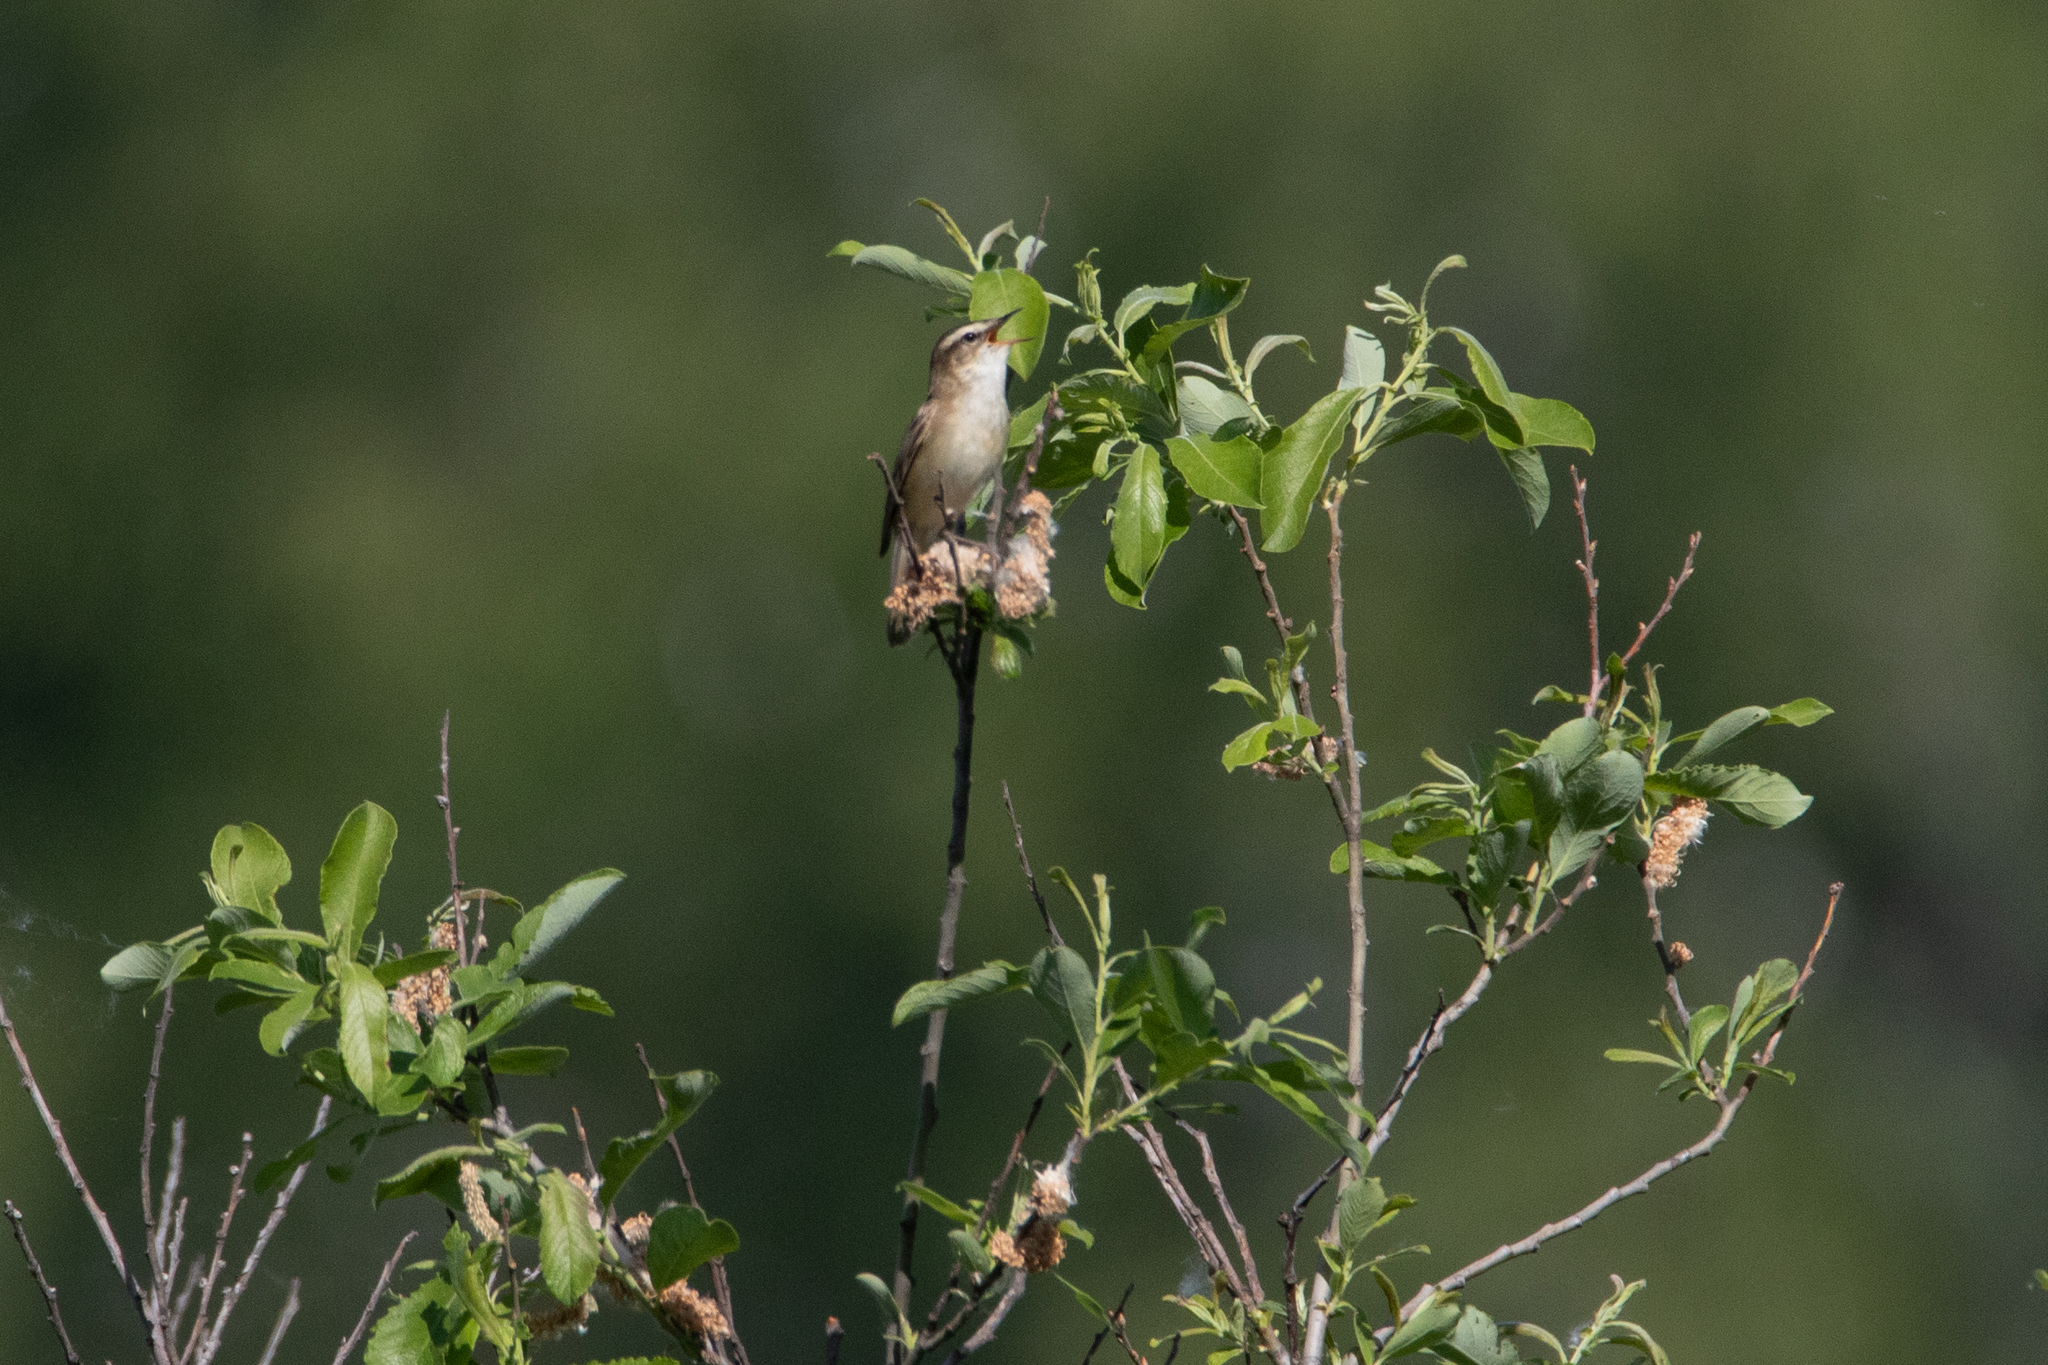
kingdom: Animalia
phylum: Chordata
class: Aves
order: Passeriformes
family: Acrocephalidae
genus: Acrocephalus
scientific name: Acrocephalus schoenobaenus
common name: Sedge warbler
